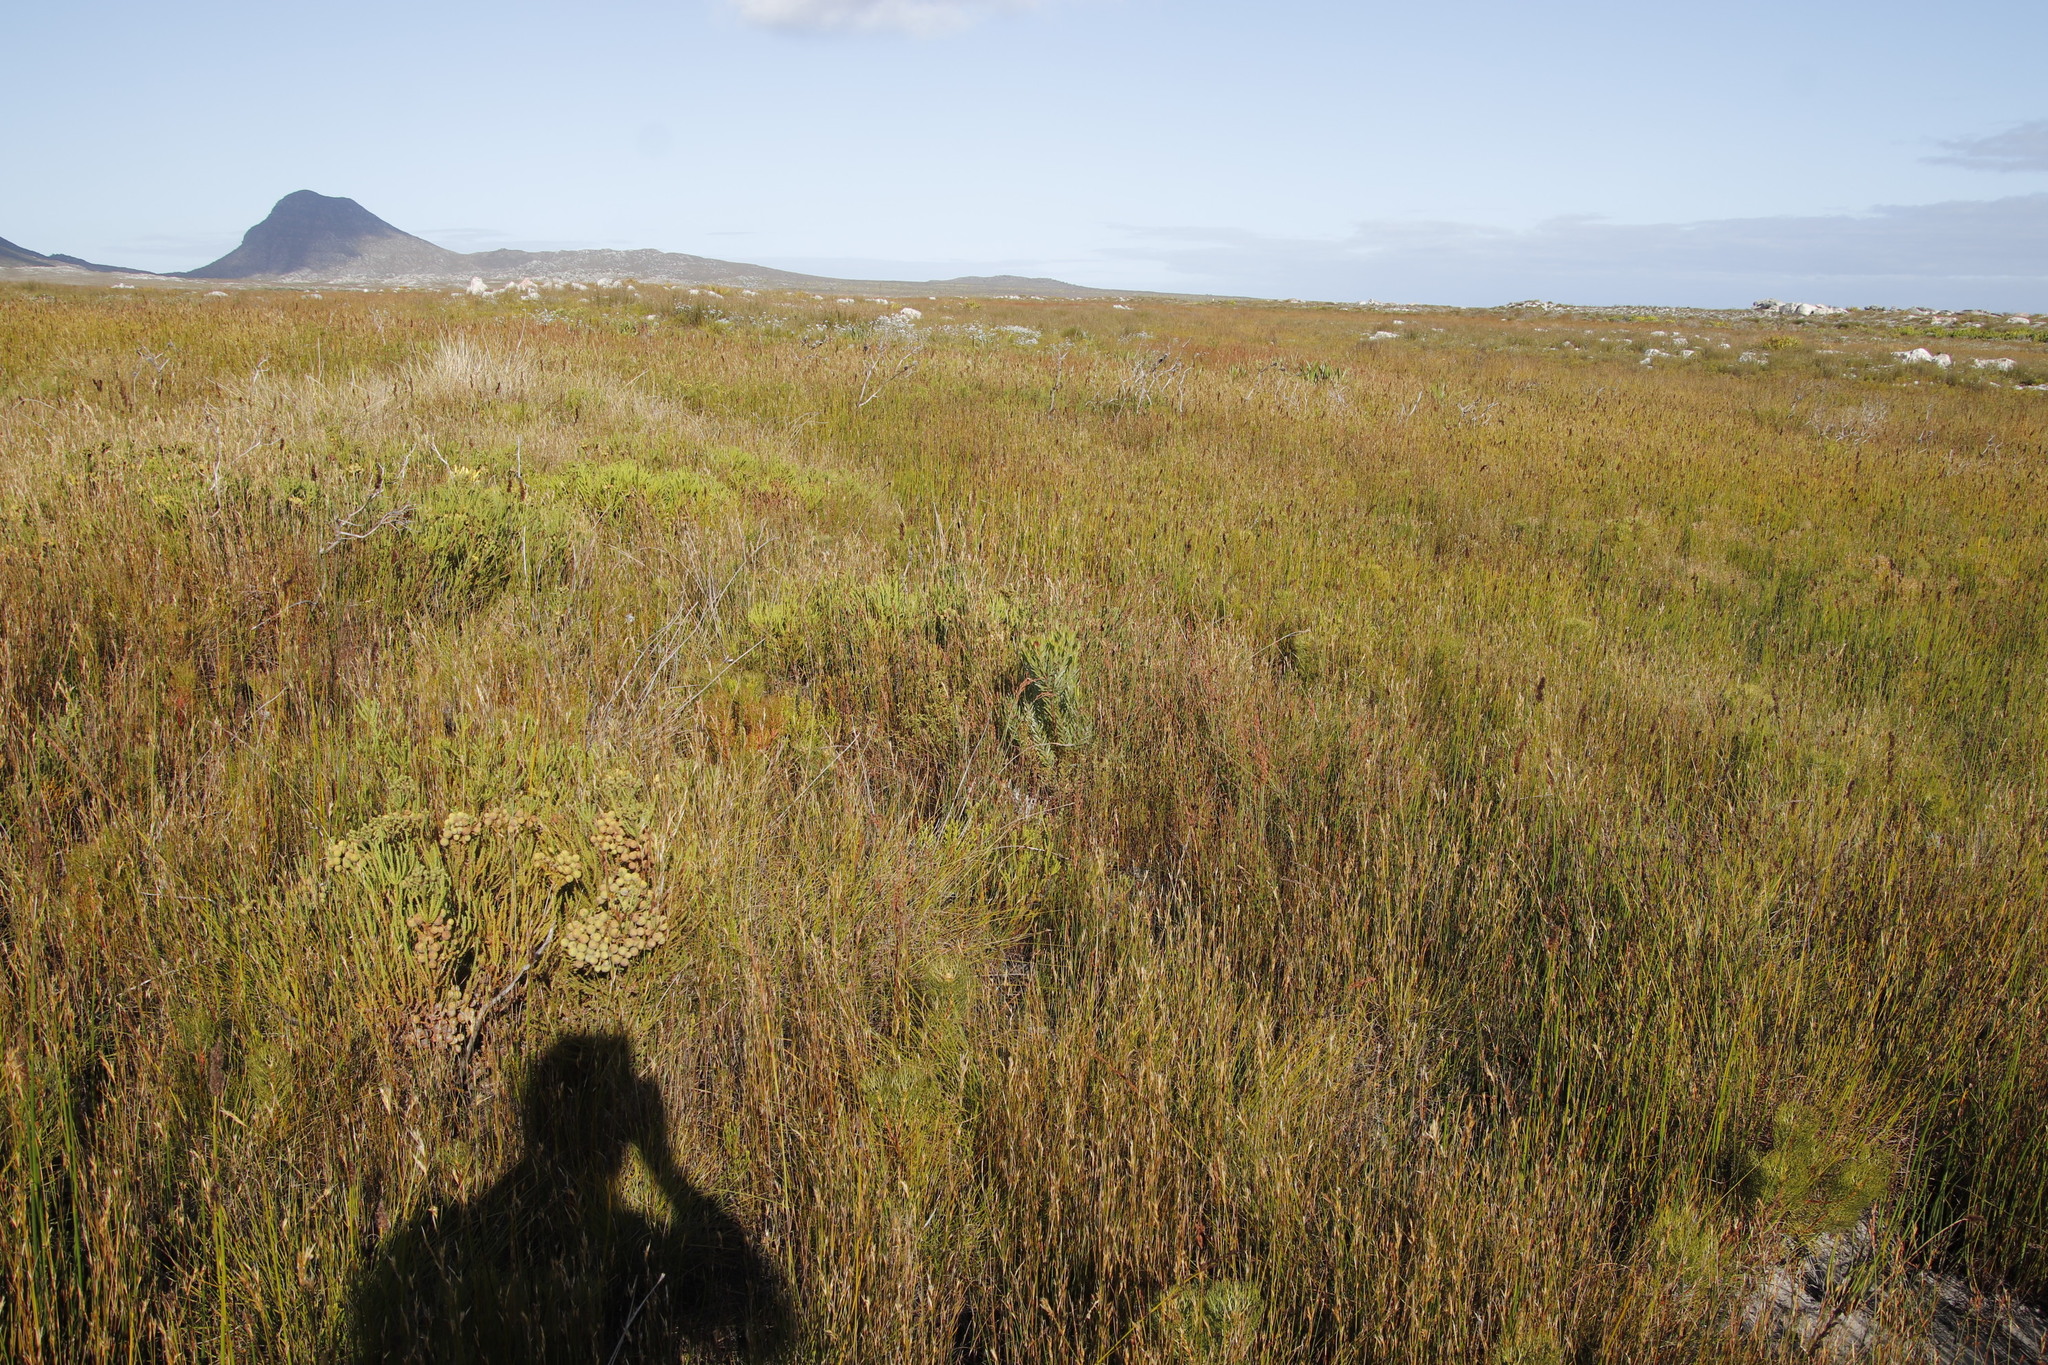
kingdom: Plantae
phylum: Tracheophyta
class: Magnoliopsida
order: Proteales
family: Proteaceae
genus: Leucadendron
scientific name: Leucadendron xanthoconus
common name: Sickle-leaf conebush
